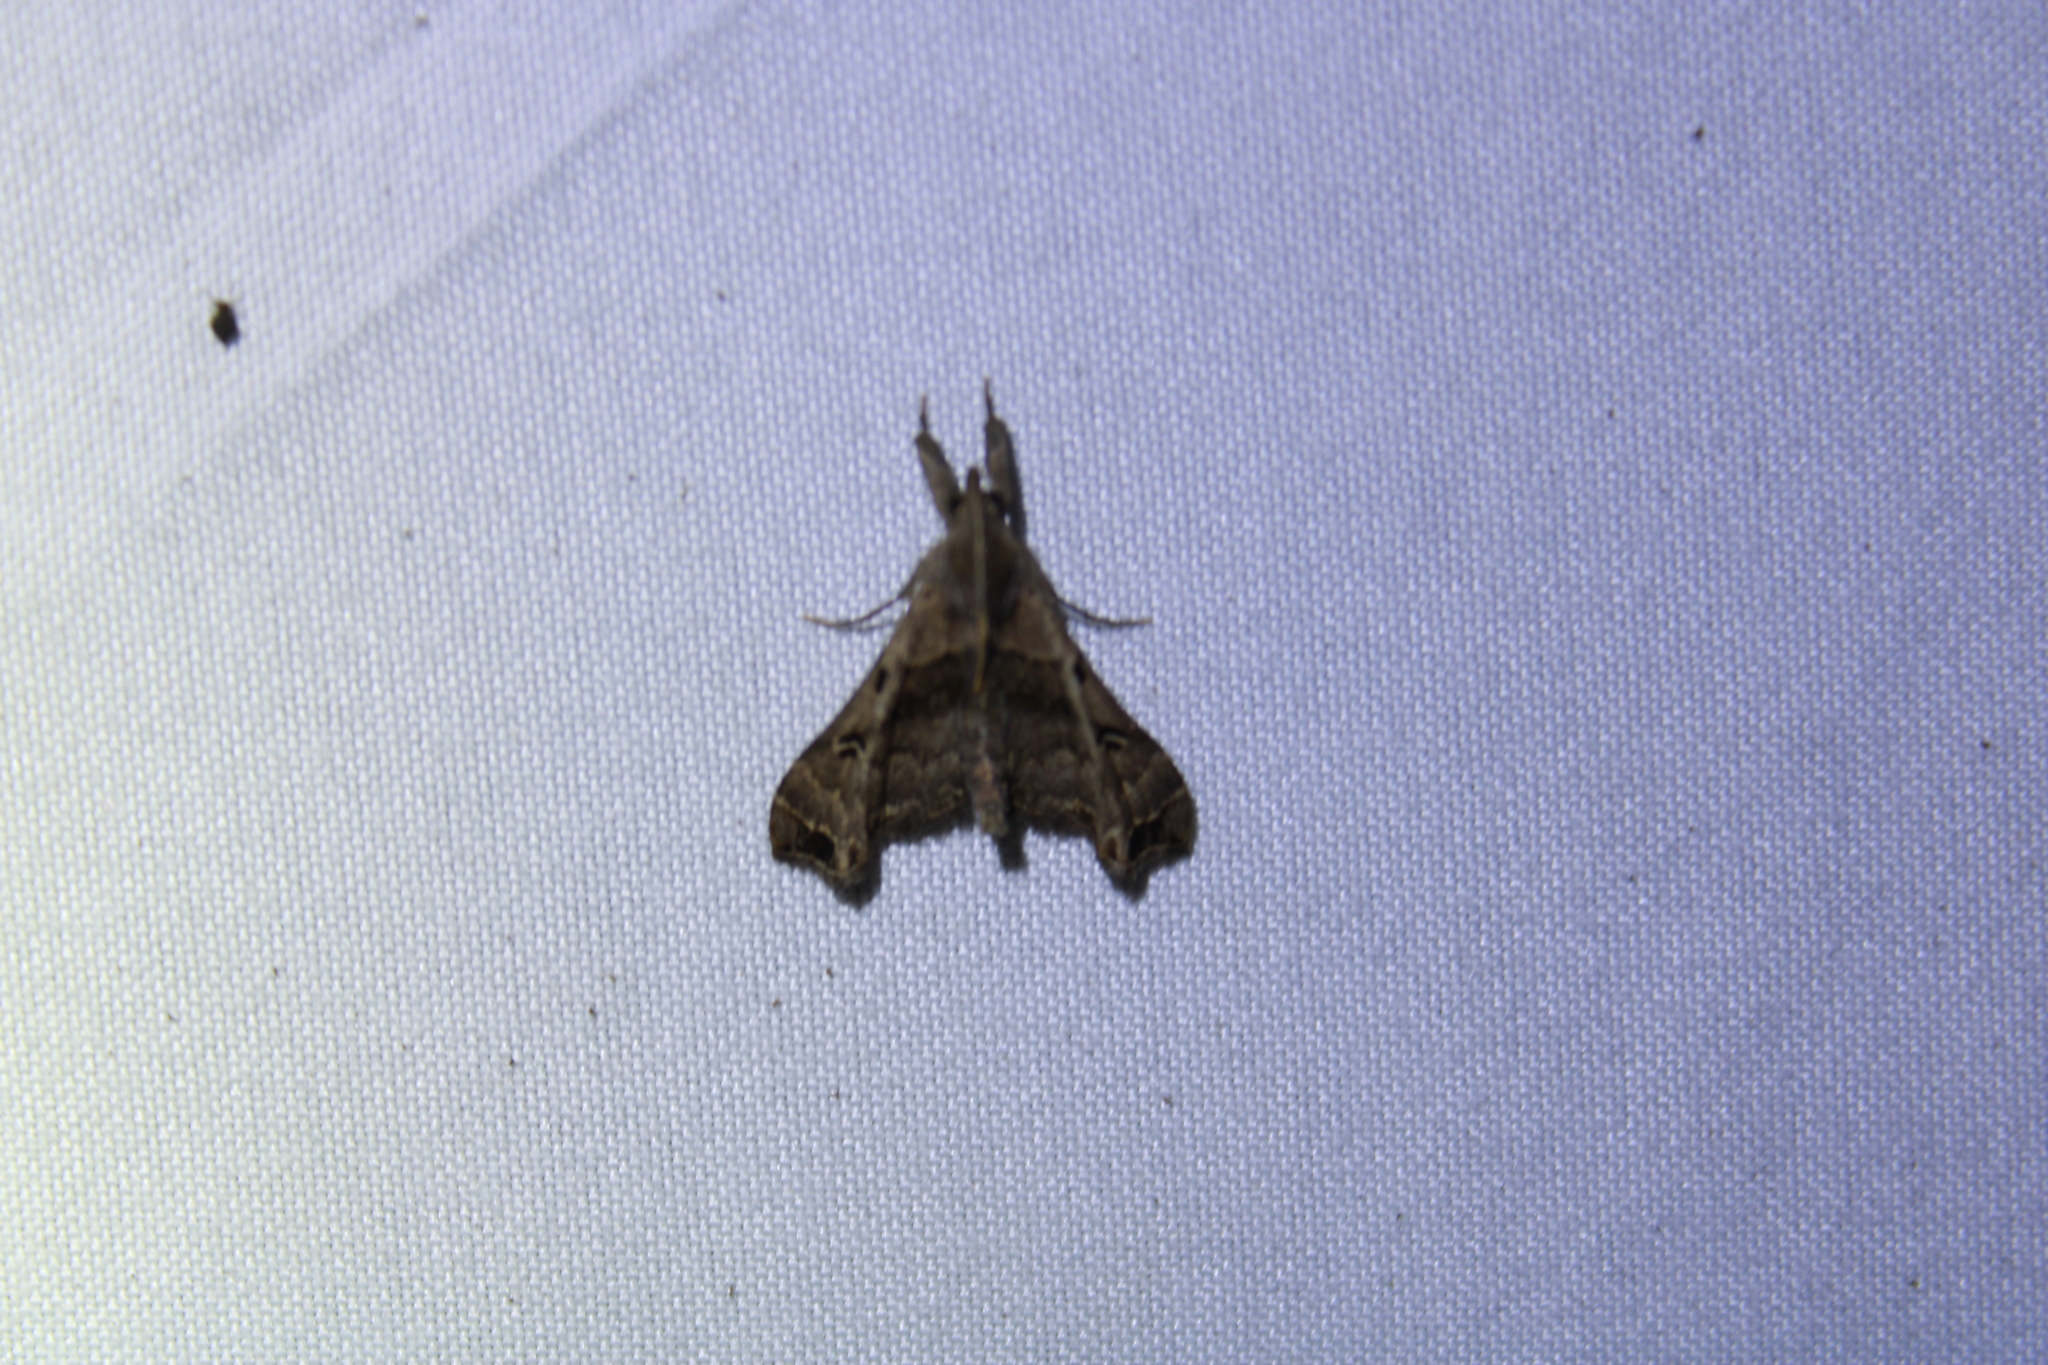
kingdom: Animalia
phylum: Arthropoda
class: Insecta
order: Lepidoptera
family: Erebidae
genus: Palthis
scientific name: Palthis asopialis
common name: Faint-spotted palthis moth
